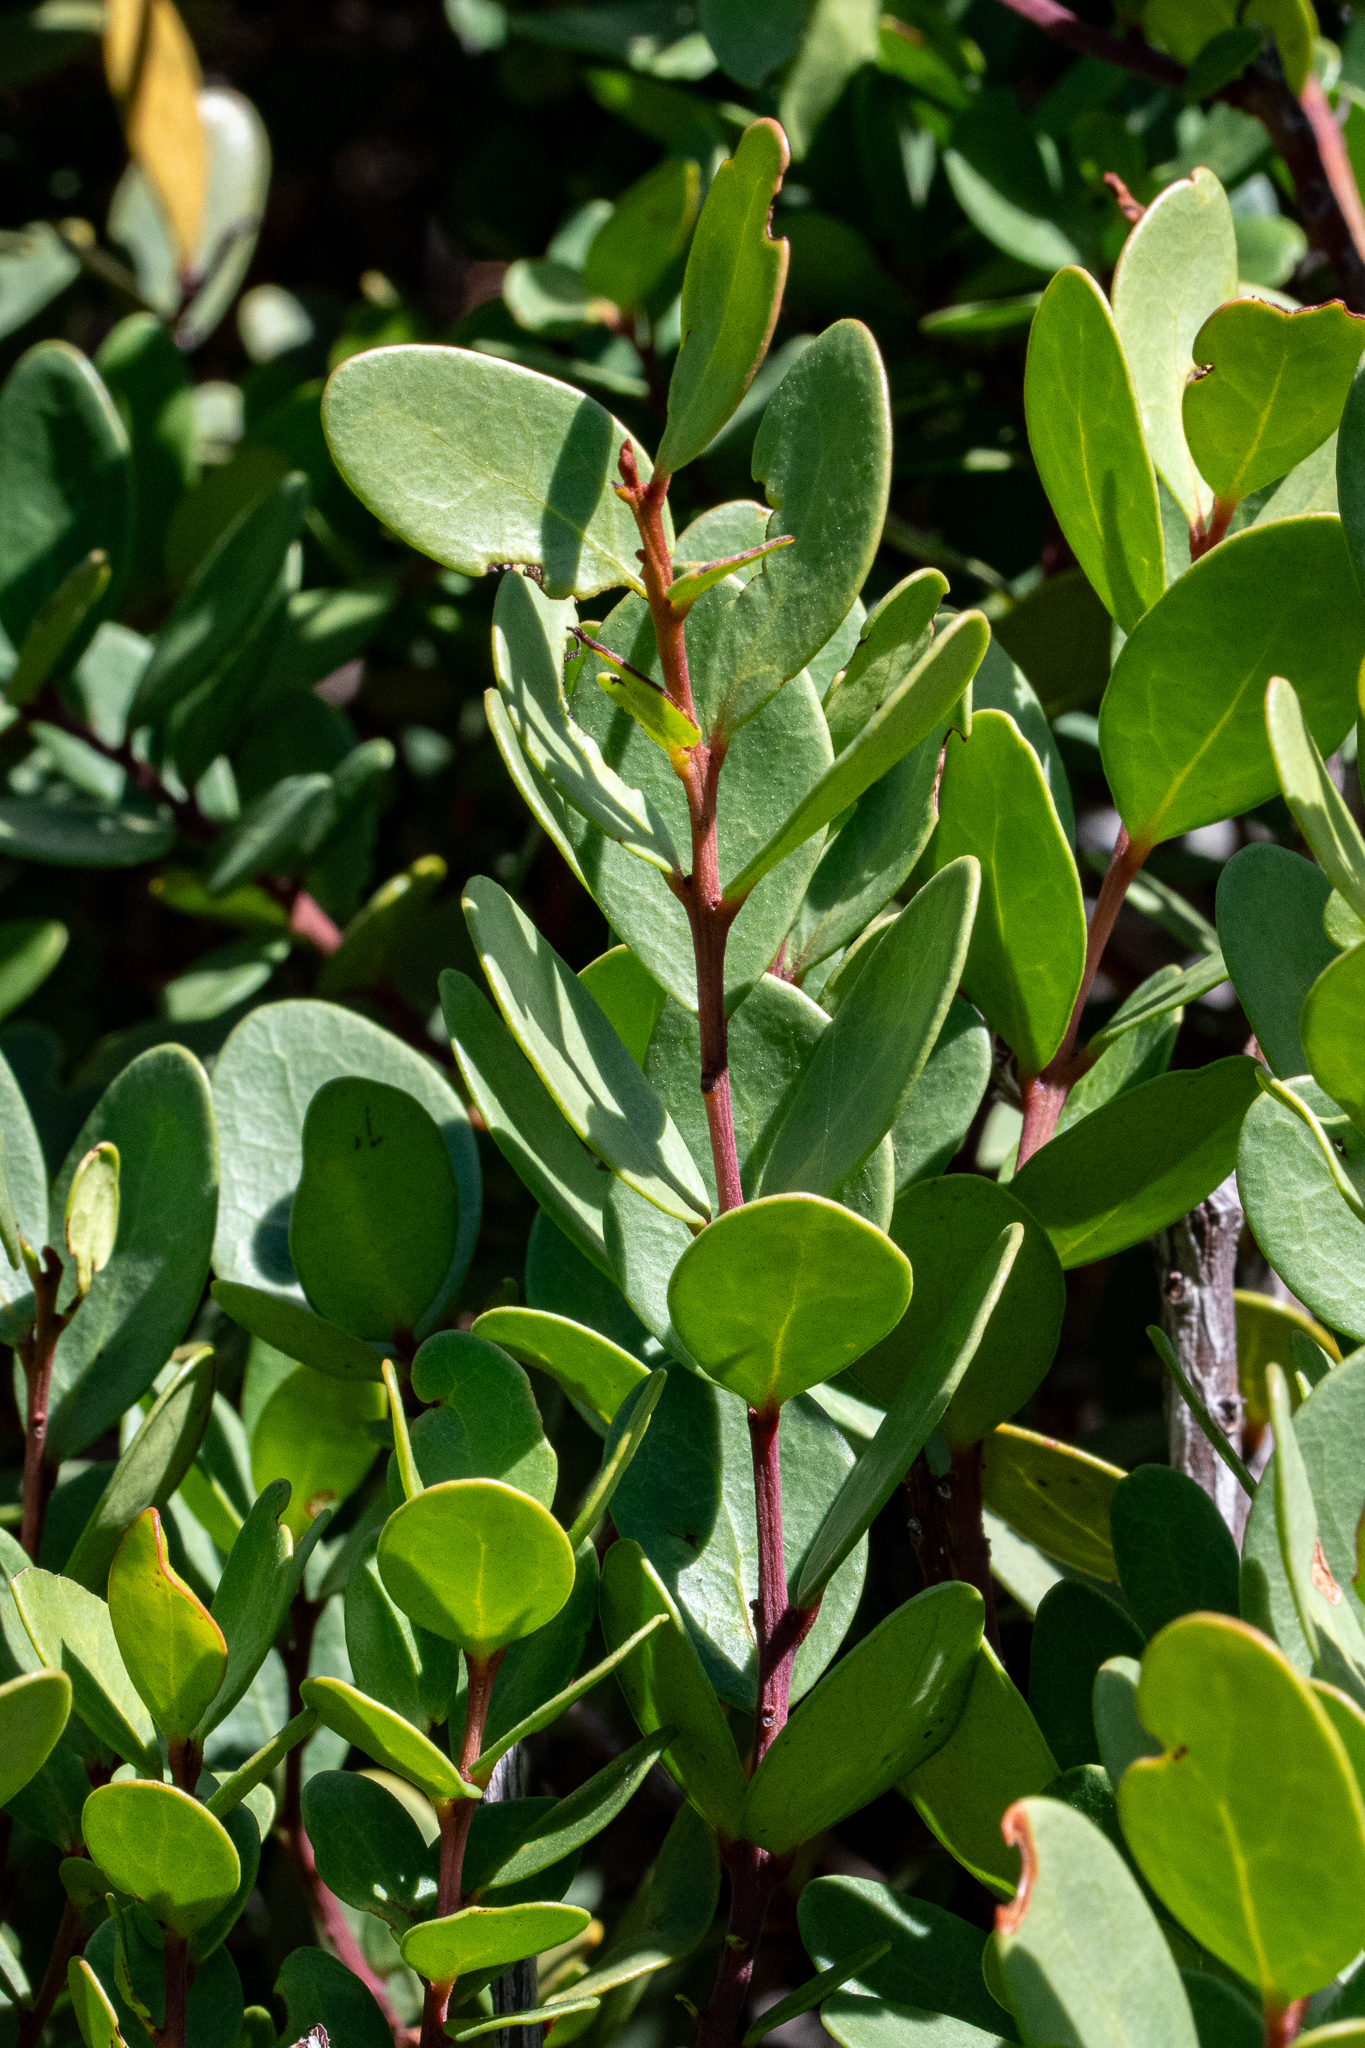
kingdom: Plantae
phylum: Tracheophyta
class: Magnoliopsida
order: Ericales
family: Ebenaceae
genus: Euclea
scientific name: Euclea racemosa
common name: Dune guarri
